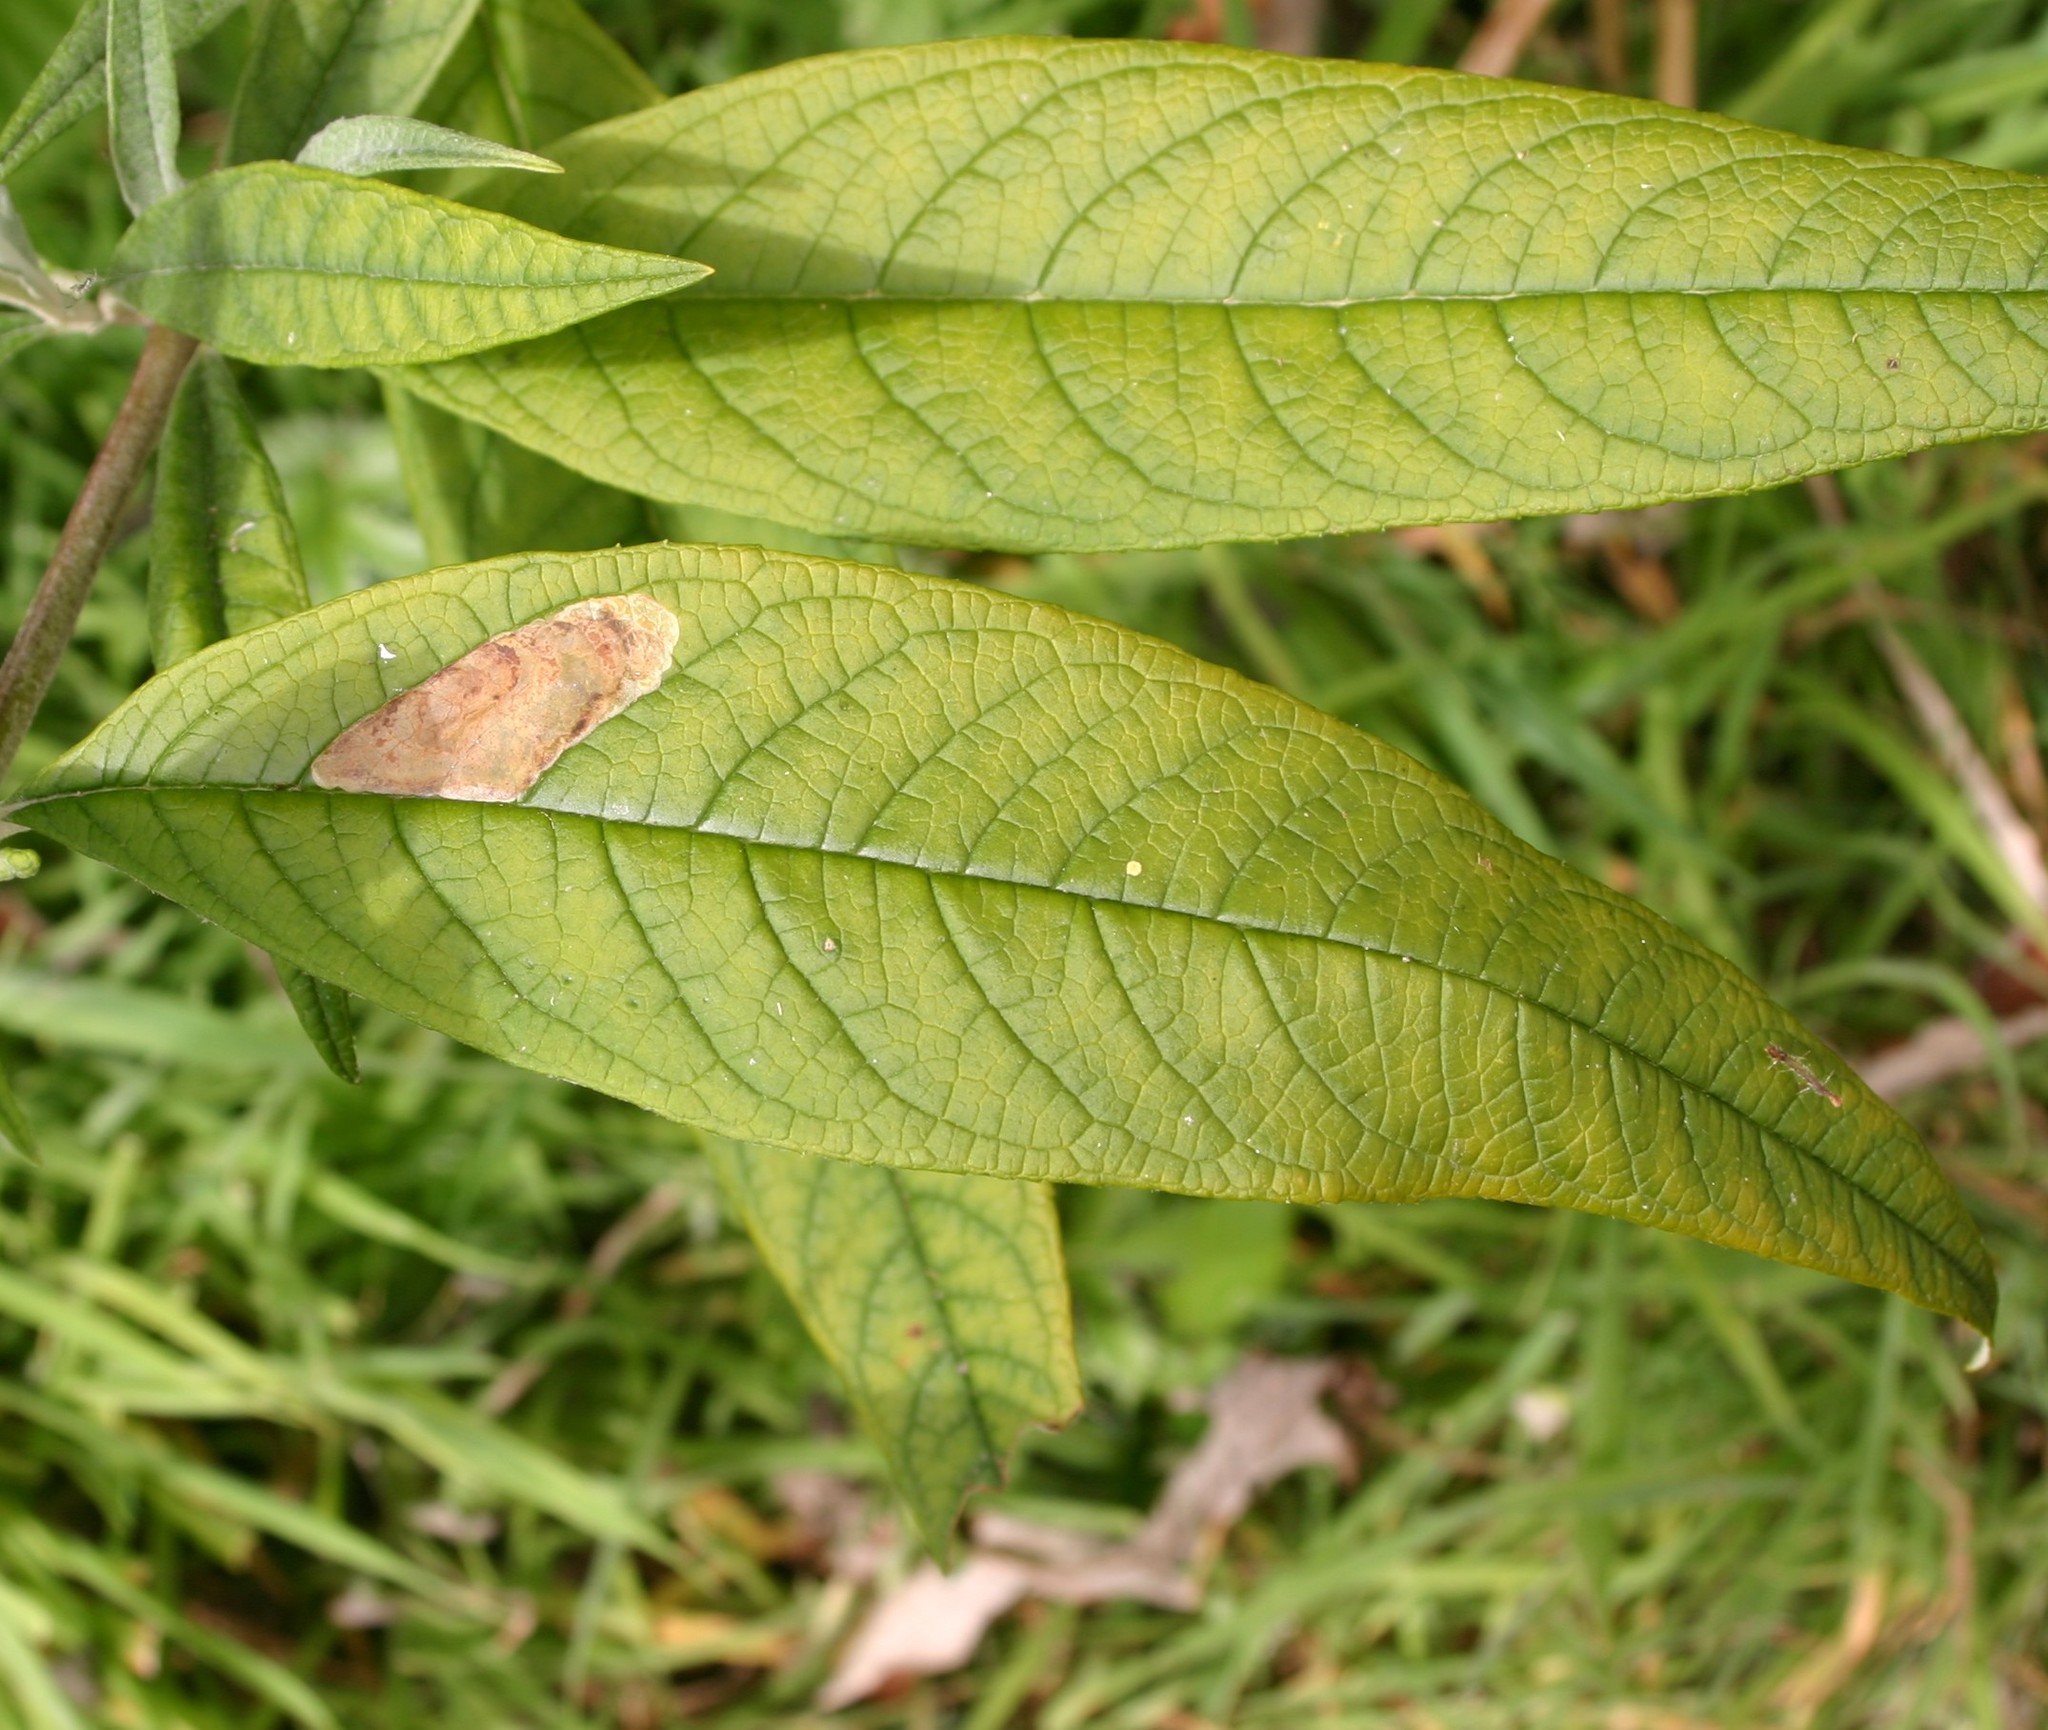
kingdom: Animalia
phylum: Arthropoda
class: Insecta
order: Diptera
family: Agromyzidae
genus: Amauromyza
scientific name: Amauromyza verbasci
